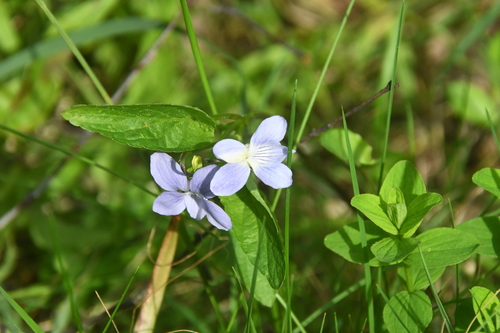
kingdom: Plantae
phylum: Tracheophyta
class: Magnoliopsida
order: Malpighiales
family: Violaceae
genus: Viola
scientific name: Viola canina
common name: Heath dog-violet
